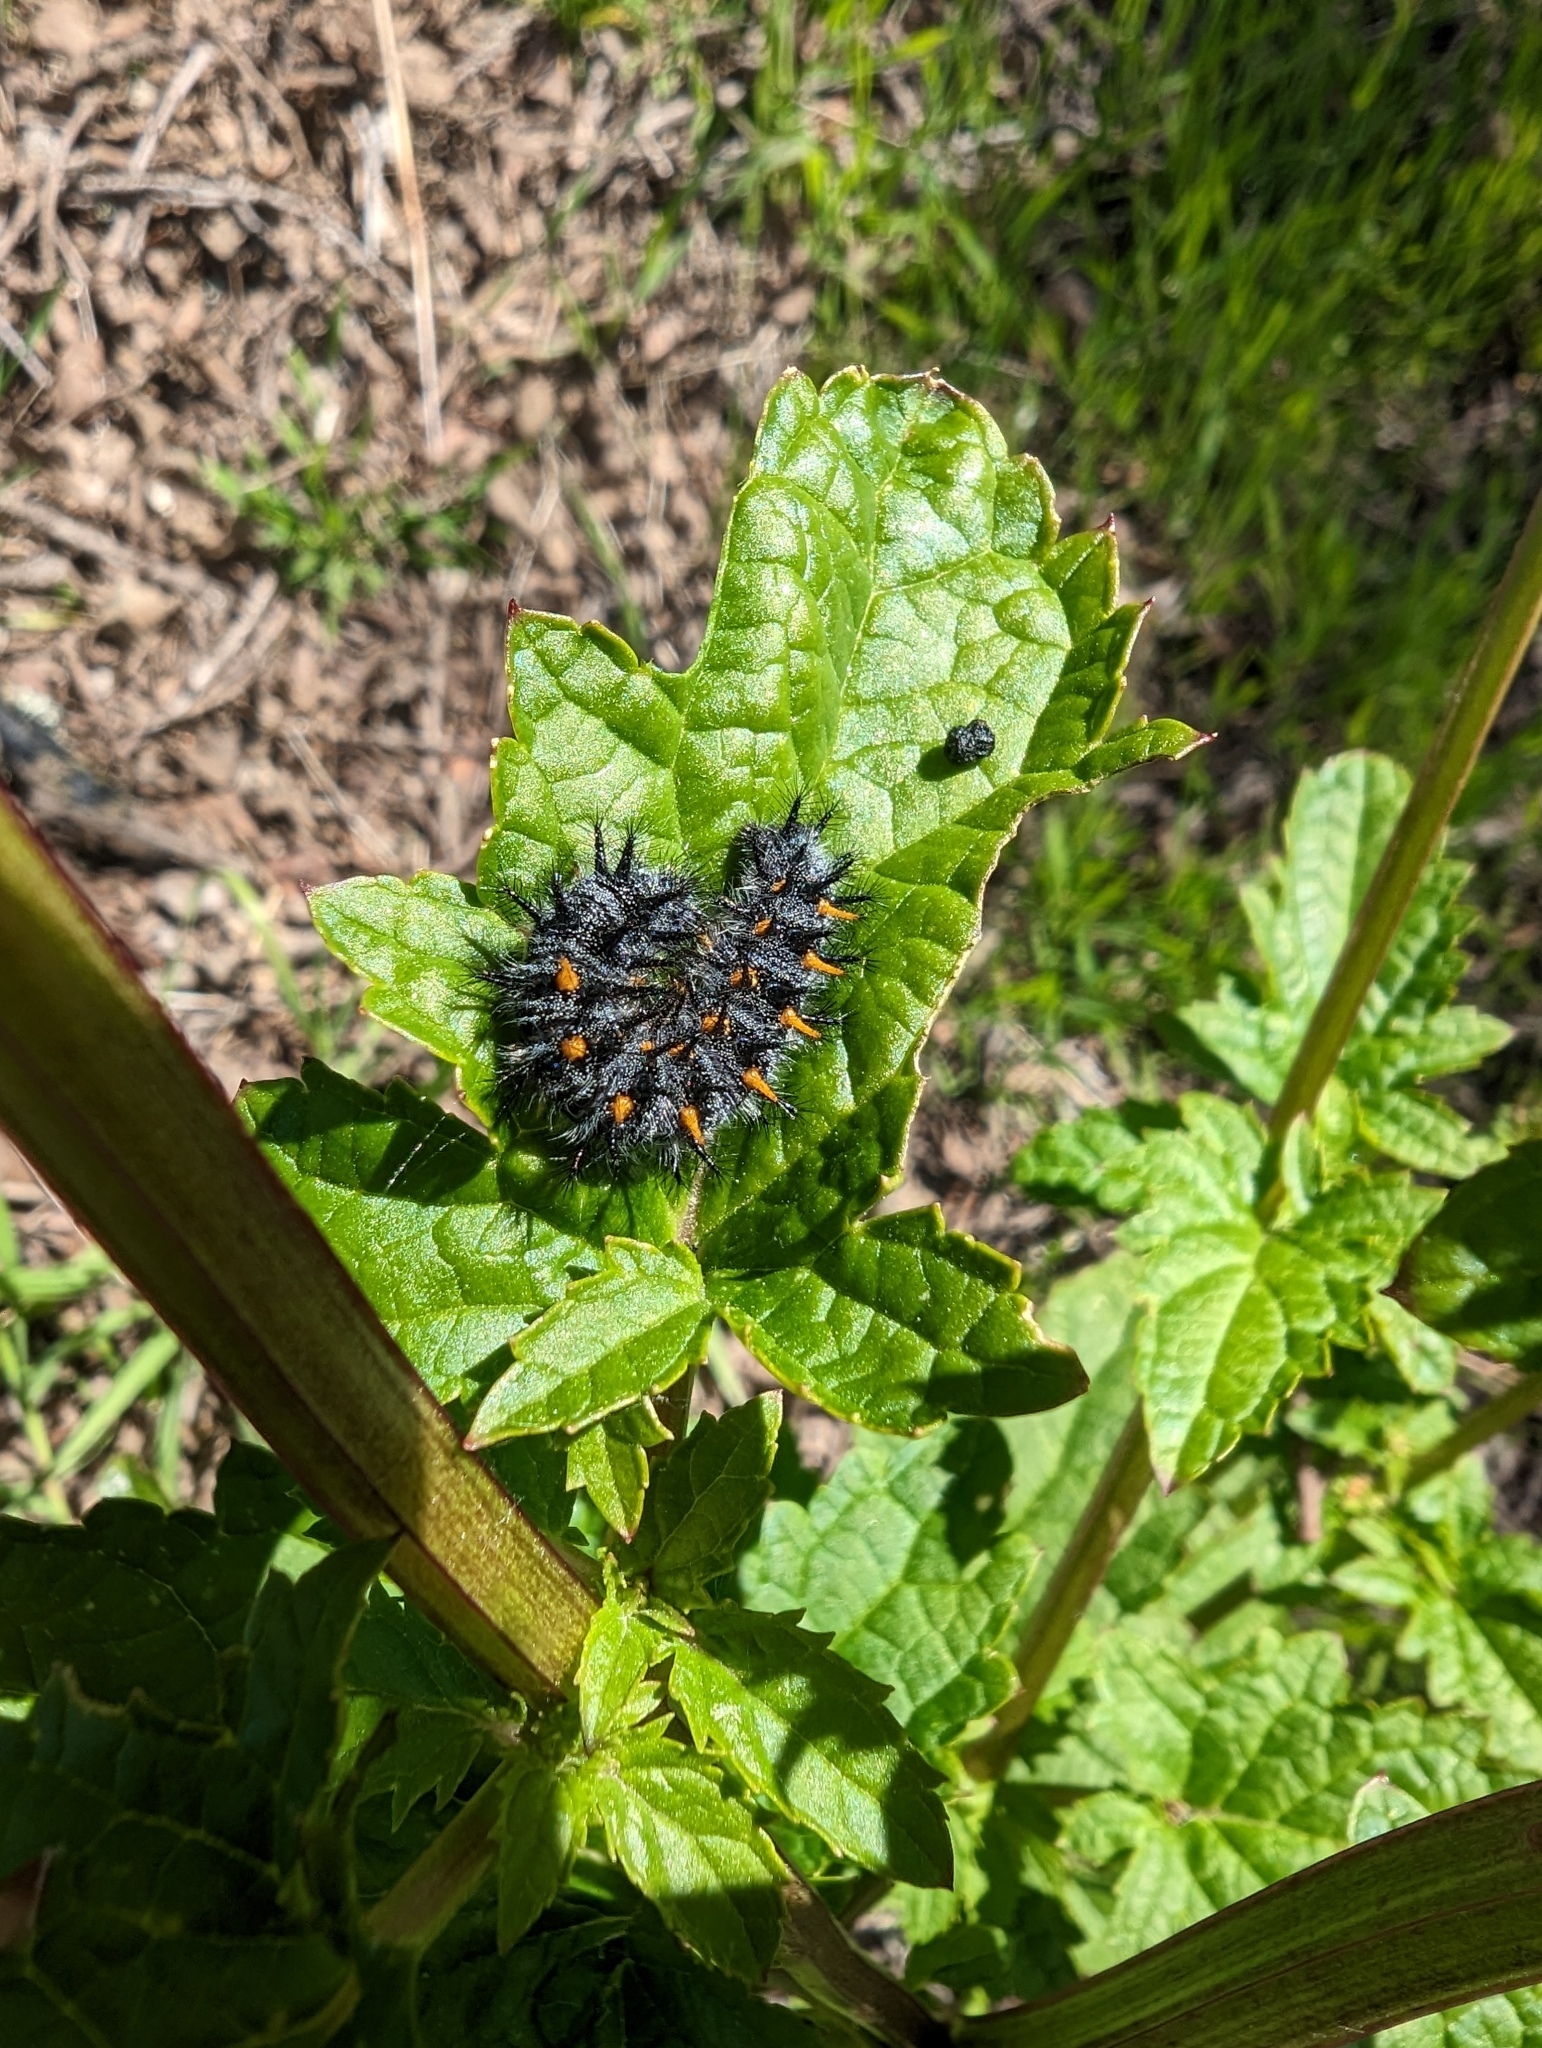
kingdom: Animalia
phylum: Arthropoda
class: Insecta
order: Lepidoptera
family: Nymphalidae
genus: Occidryas
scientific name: Occidryas chalcedona
